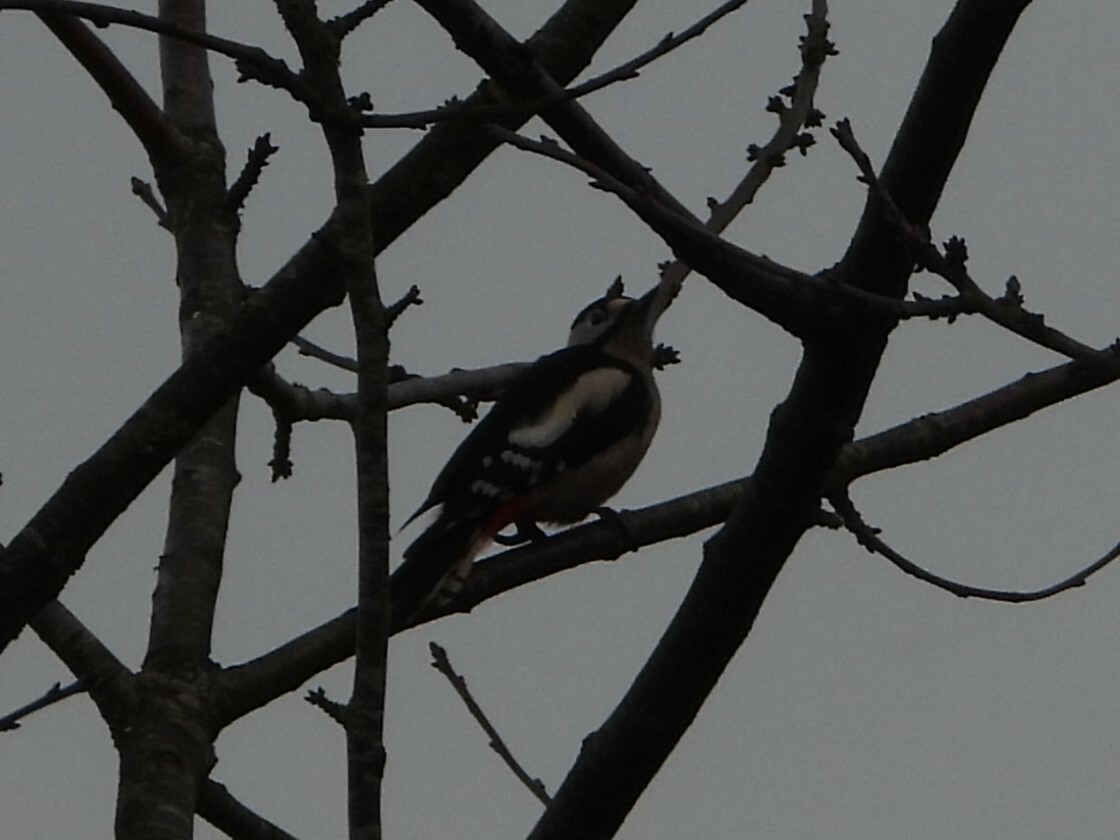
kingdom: Animalia
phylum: Chordata
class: Aves
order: Piciformes
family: Picidae
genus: Dendrocopos
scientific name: Dendrocopos major
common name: Great spotted woodpecker
